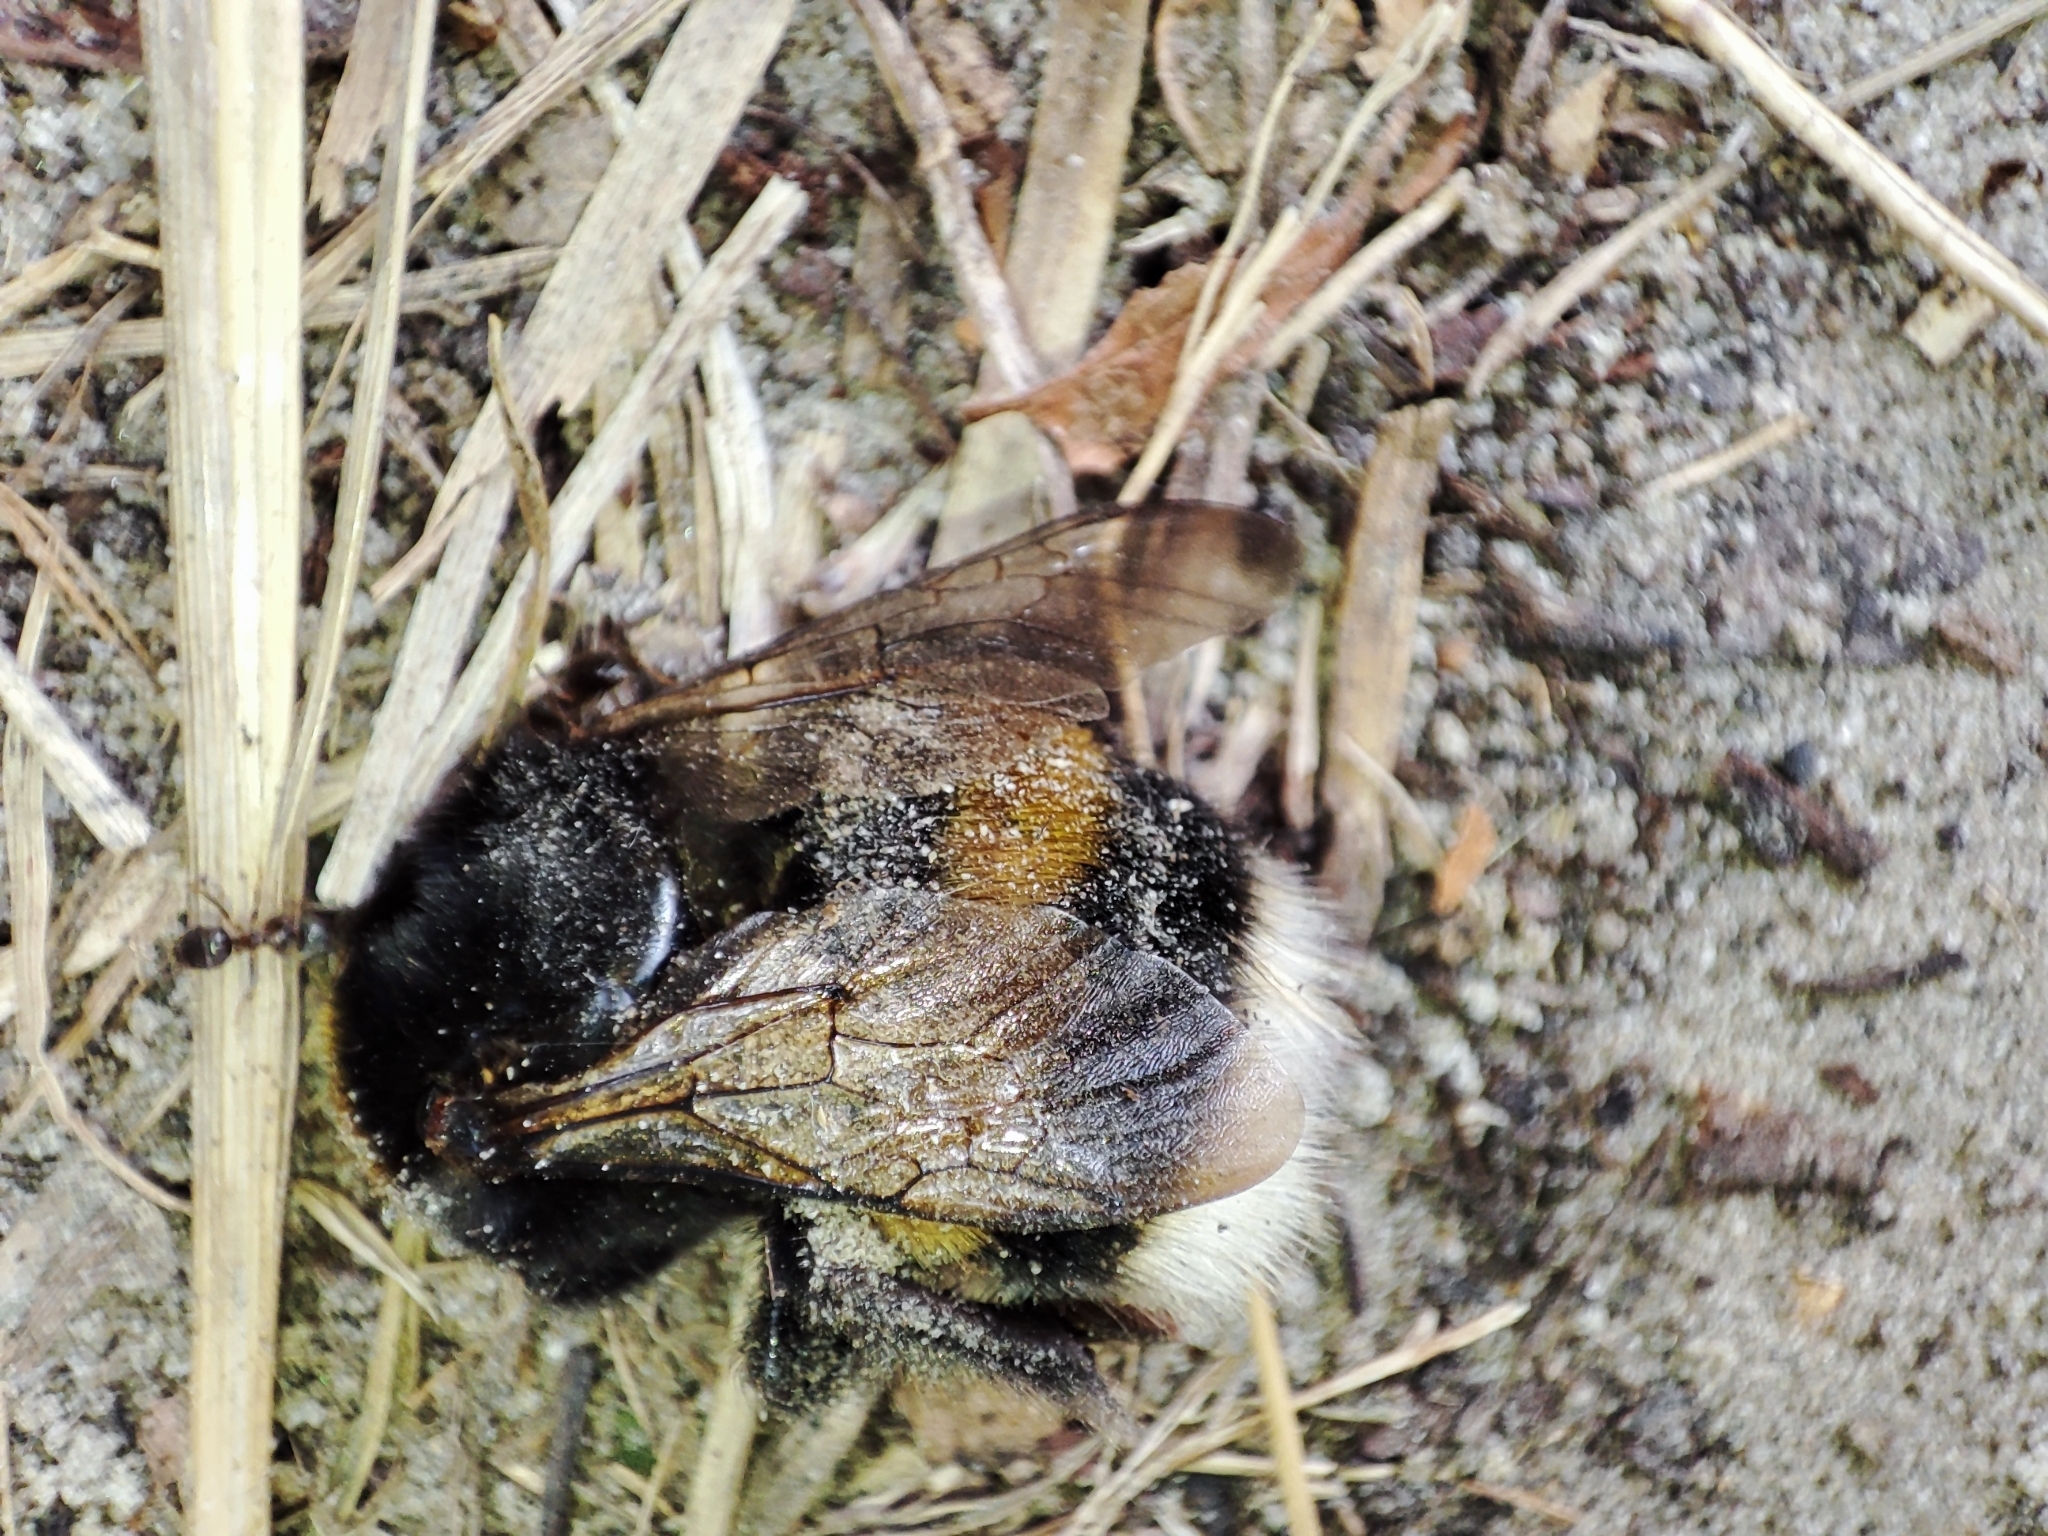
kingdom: Animalia
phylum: Arthropoda
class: Insecta
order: Hymenoptera
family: Apidae
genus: Bombus
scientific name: Bombus
